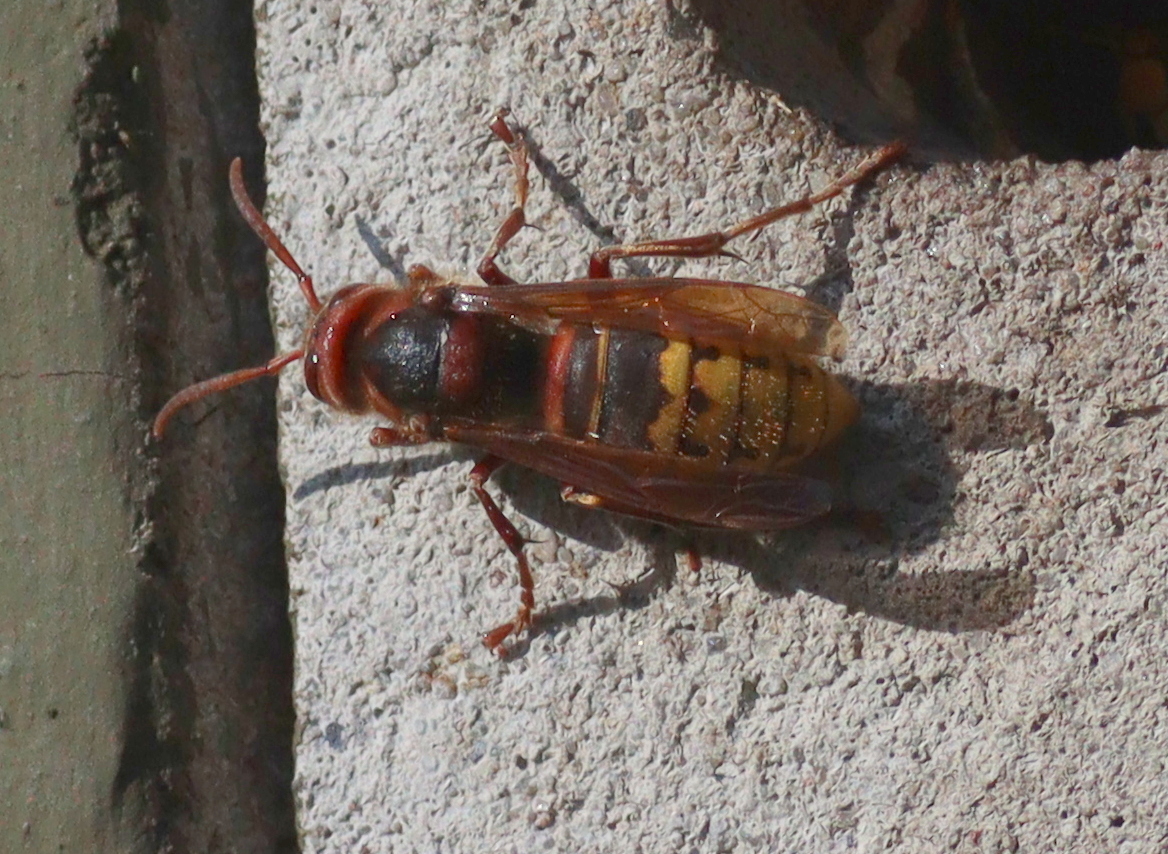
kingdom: Animalia
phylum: Arthropoda
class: Insecta
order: Hymenoptera
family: Vespidae
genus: Vespa
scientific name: Vespa crabro
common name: Hornet
